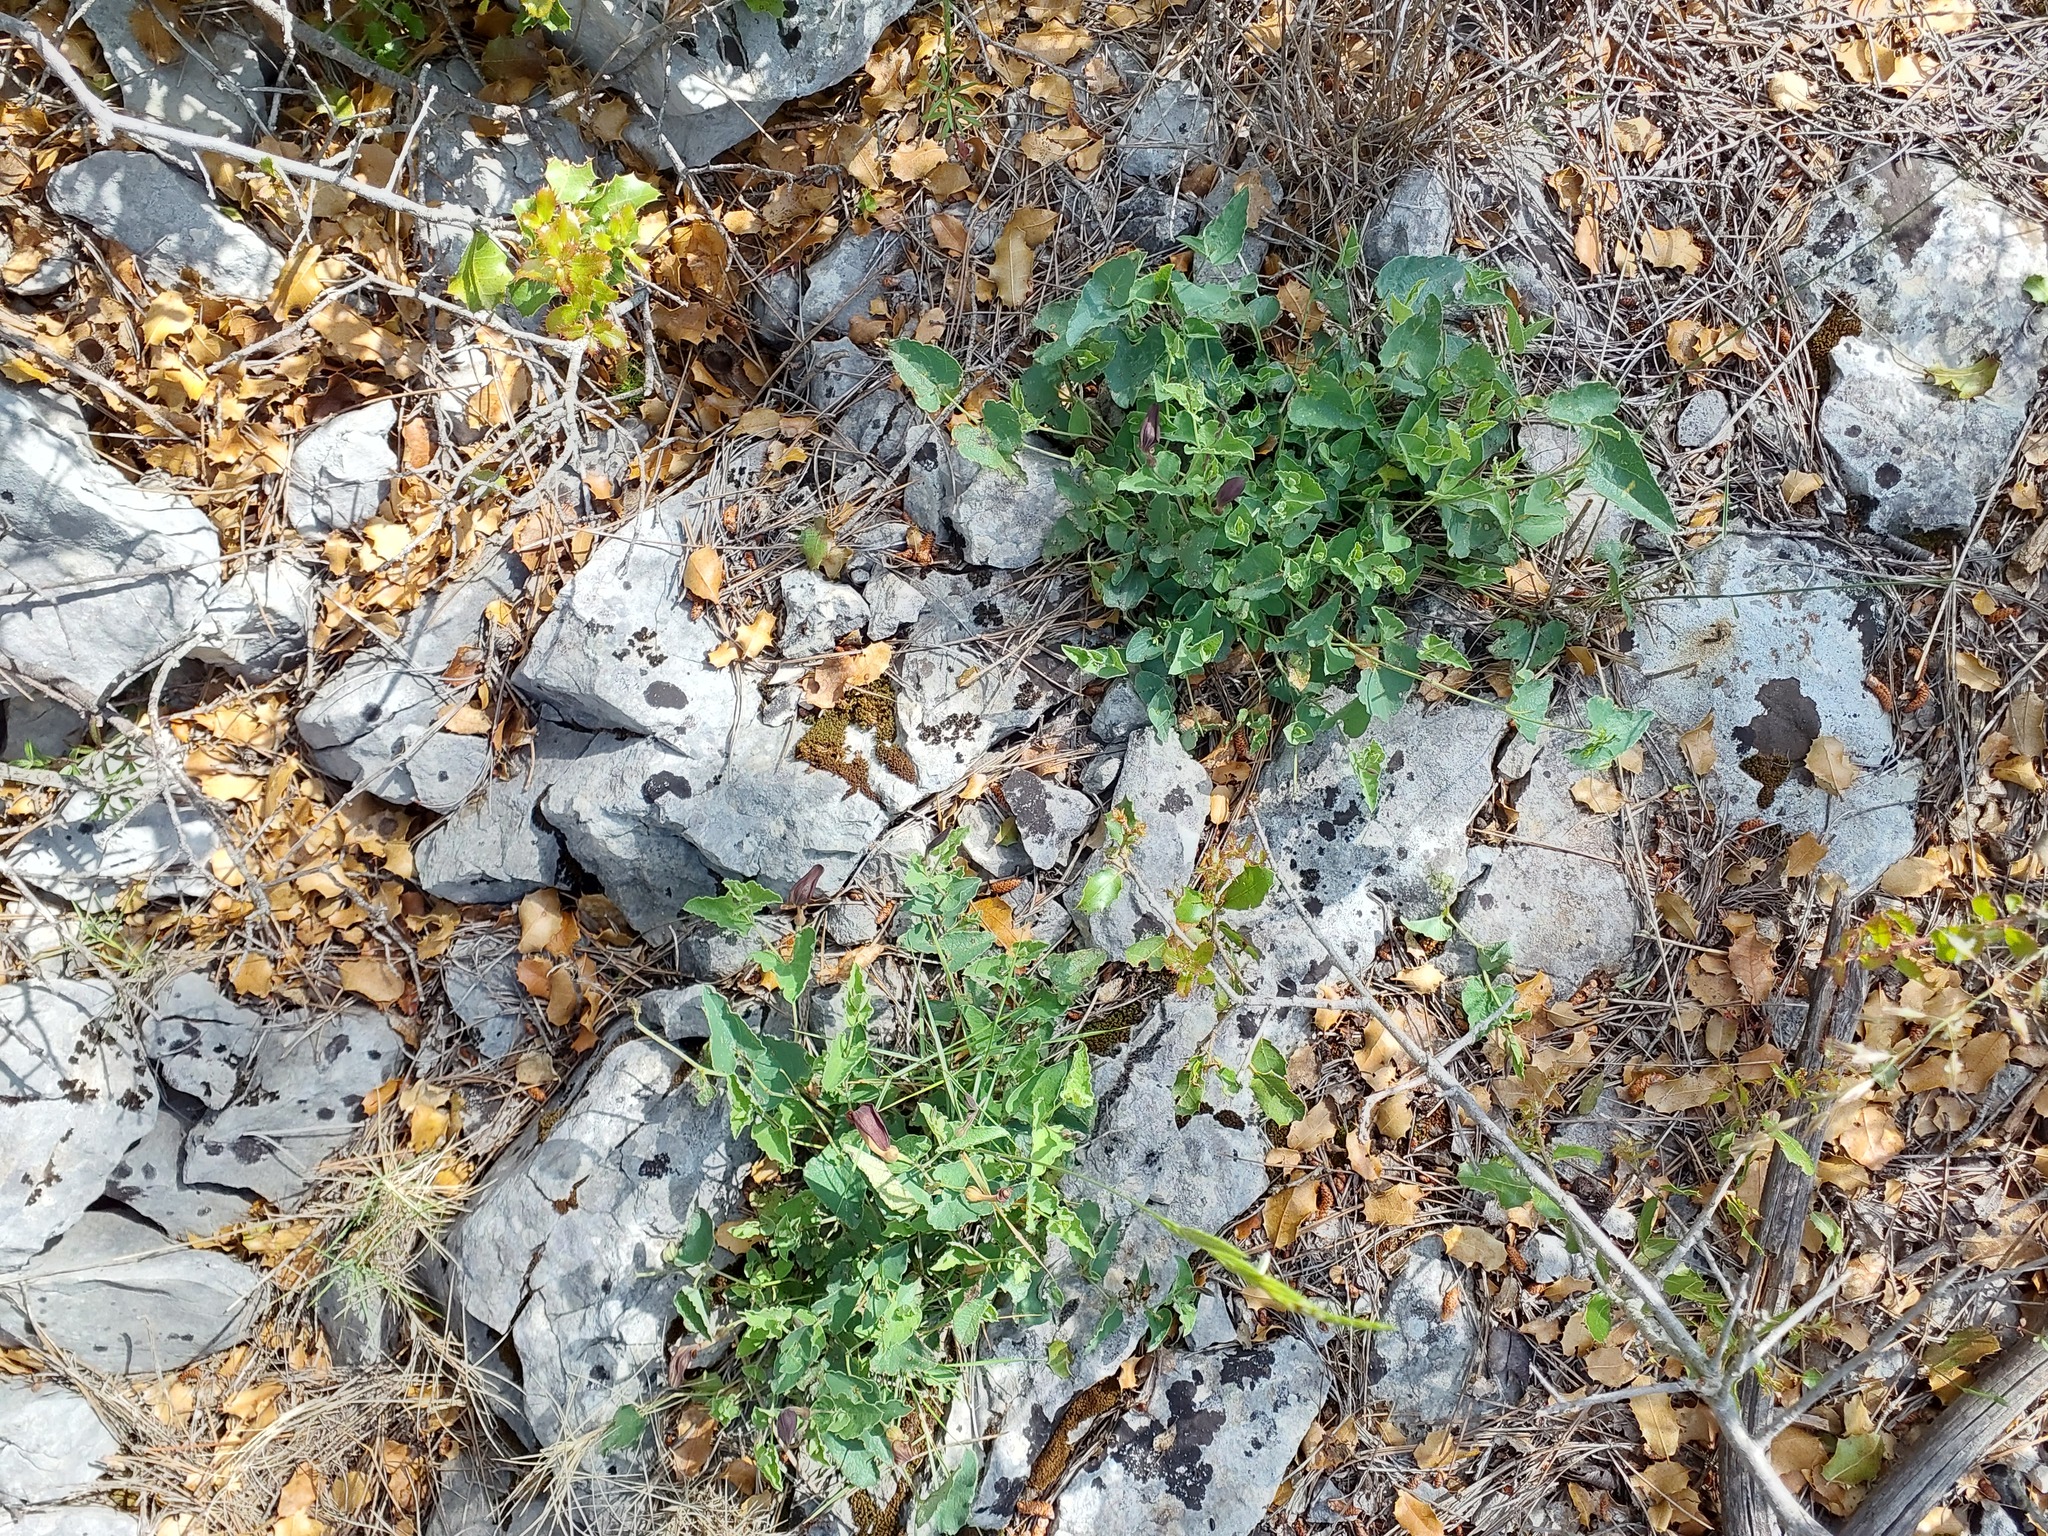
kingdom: Plantae
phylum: Tracheophyta
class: Magnoliopsida
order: Piperales
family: Aristolochiaceae
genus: Aristolochia
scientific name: Aristolochia pistolochia
